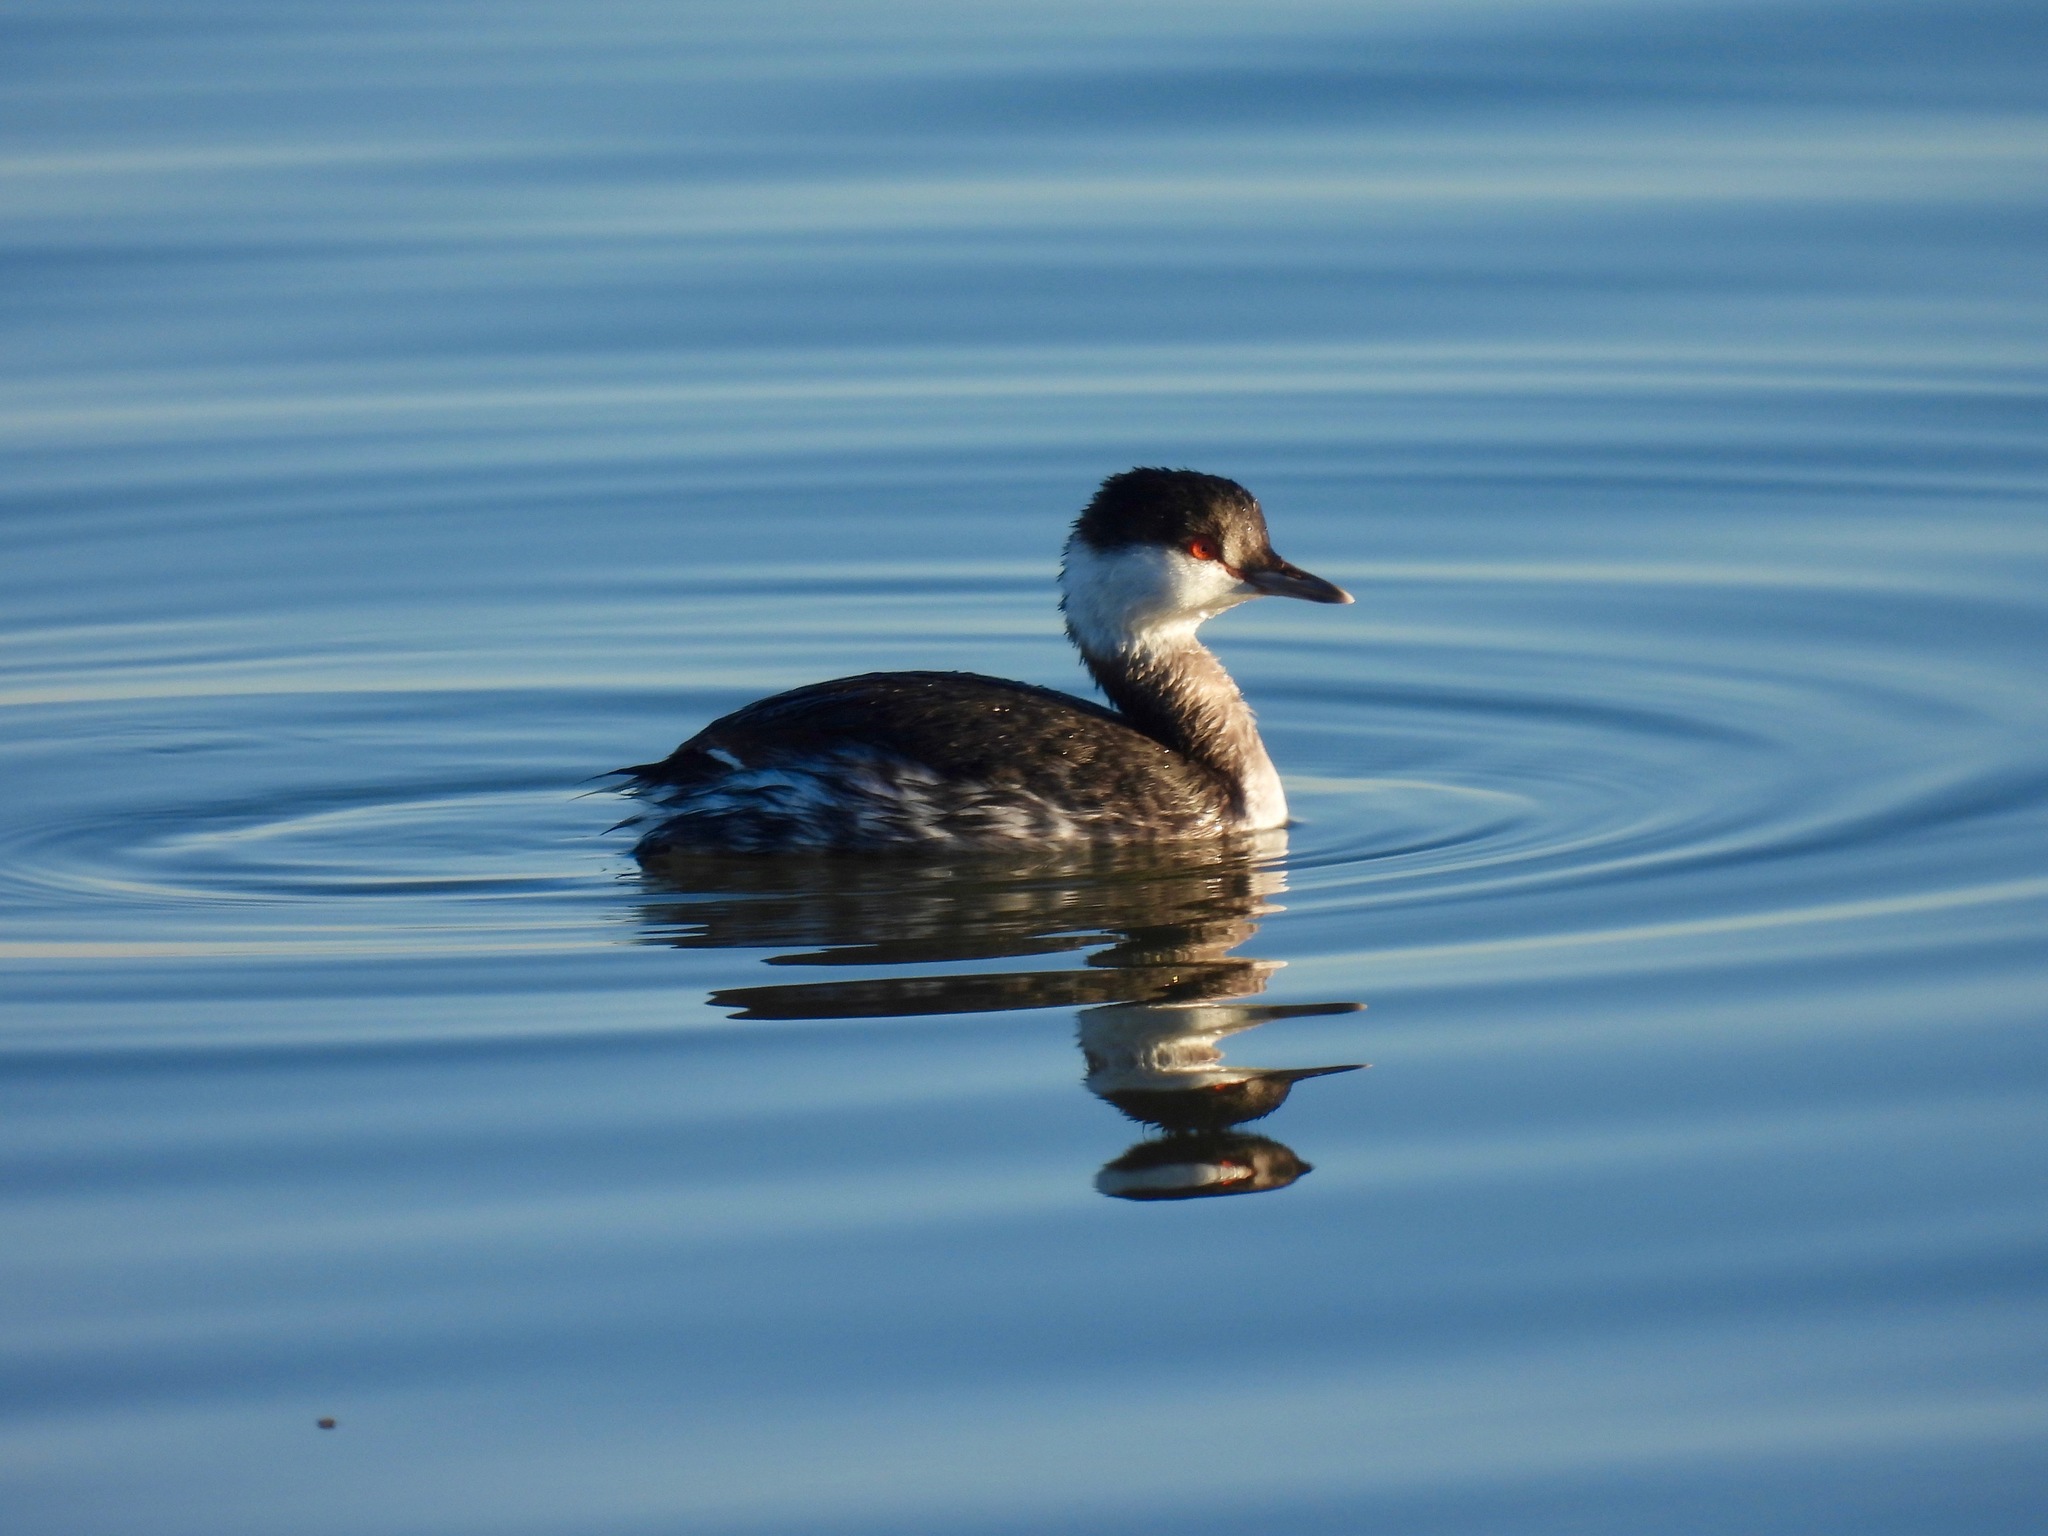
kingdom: Animalia
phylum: Chordata
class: Aves
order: Podicipediformes
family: Podicipedidae
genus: Podiceps
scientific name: Podiceps auritus
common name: Horned grebe
